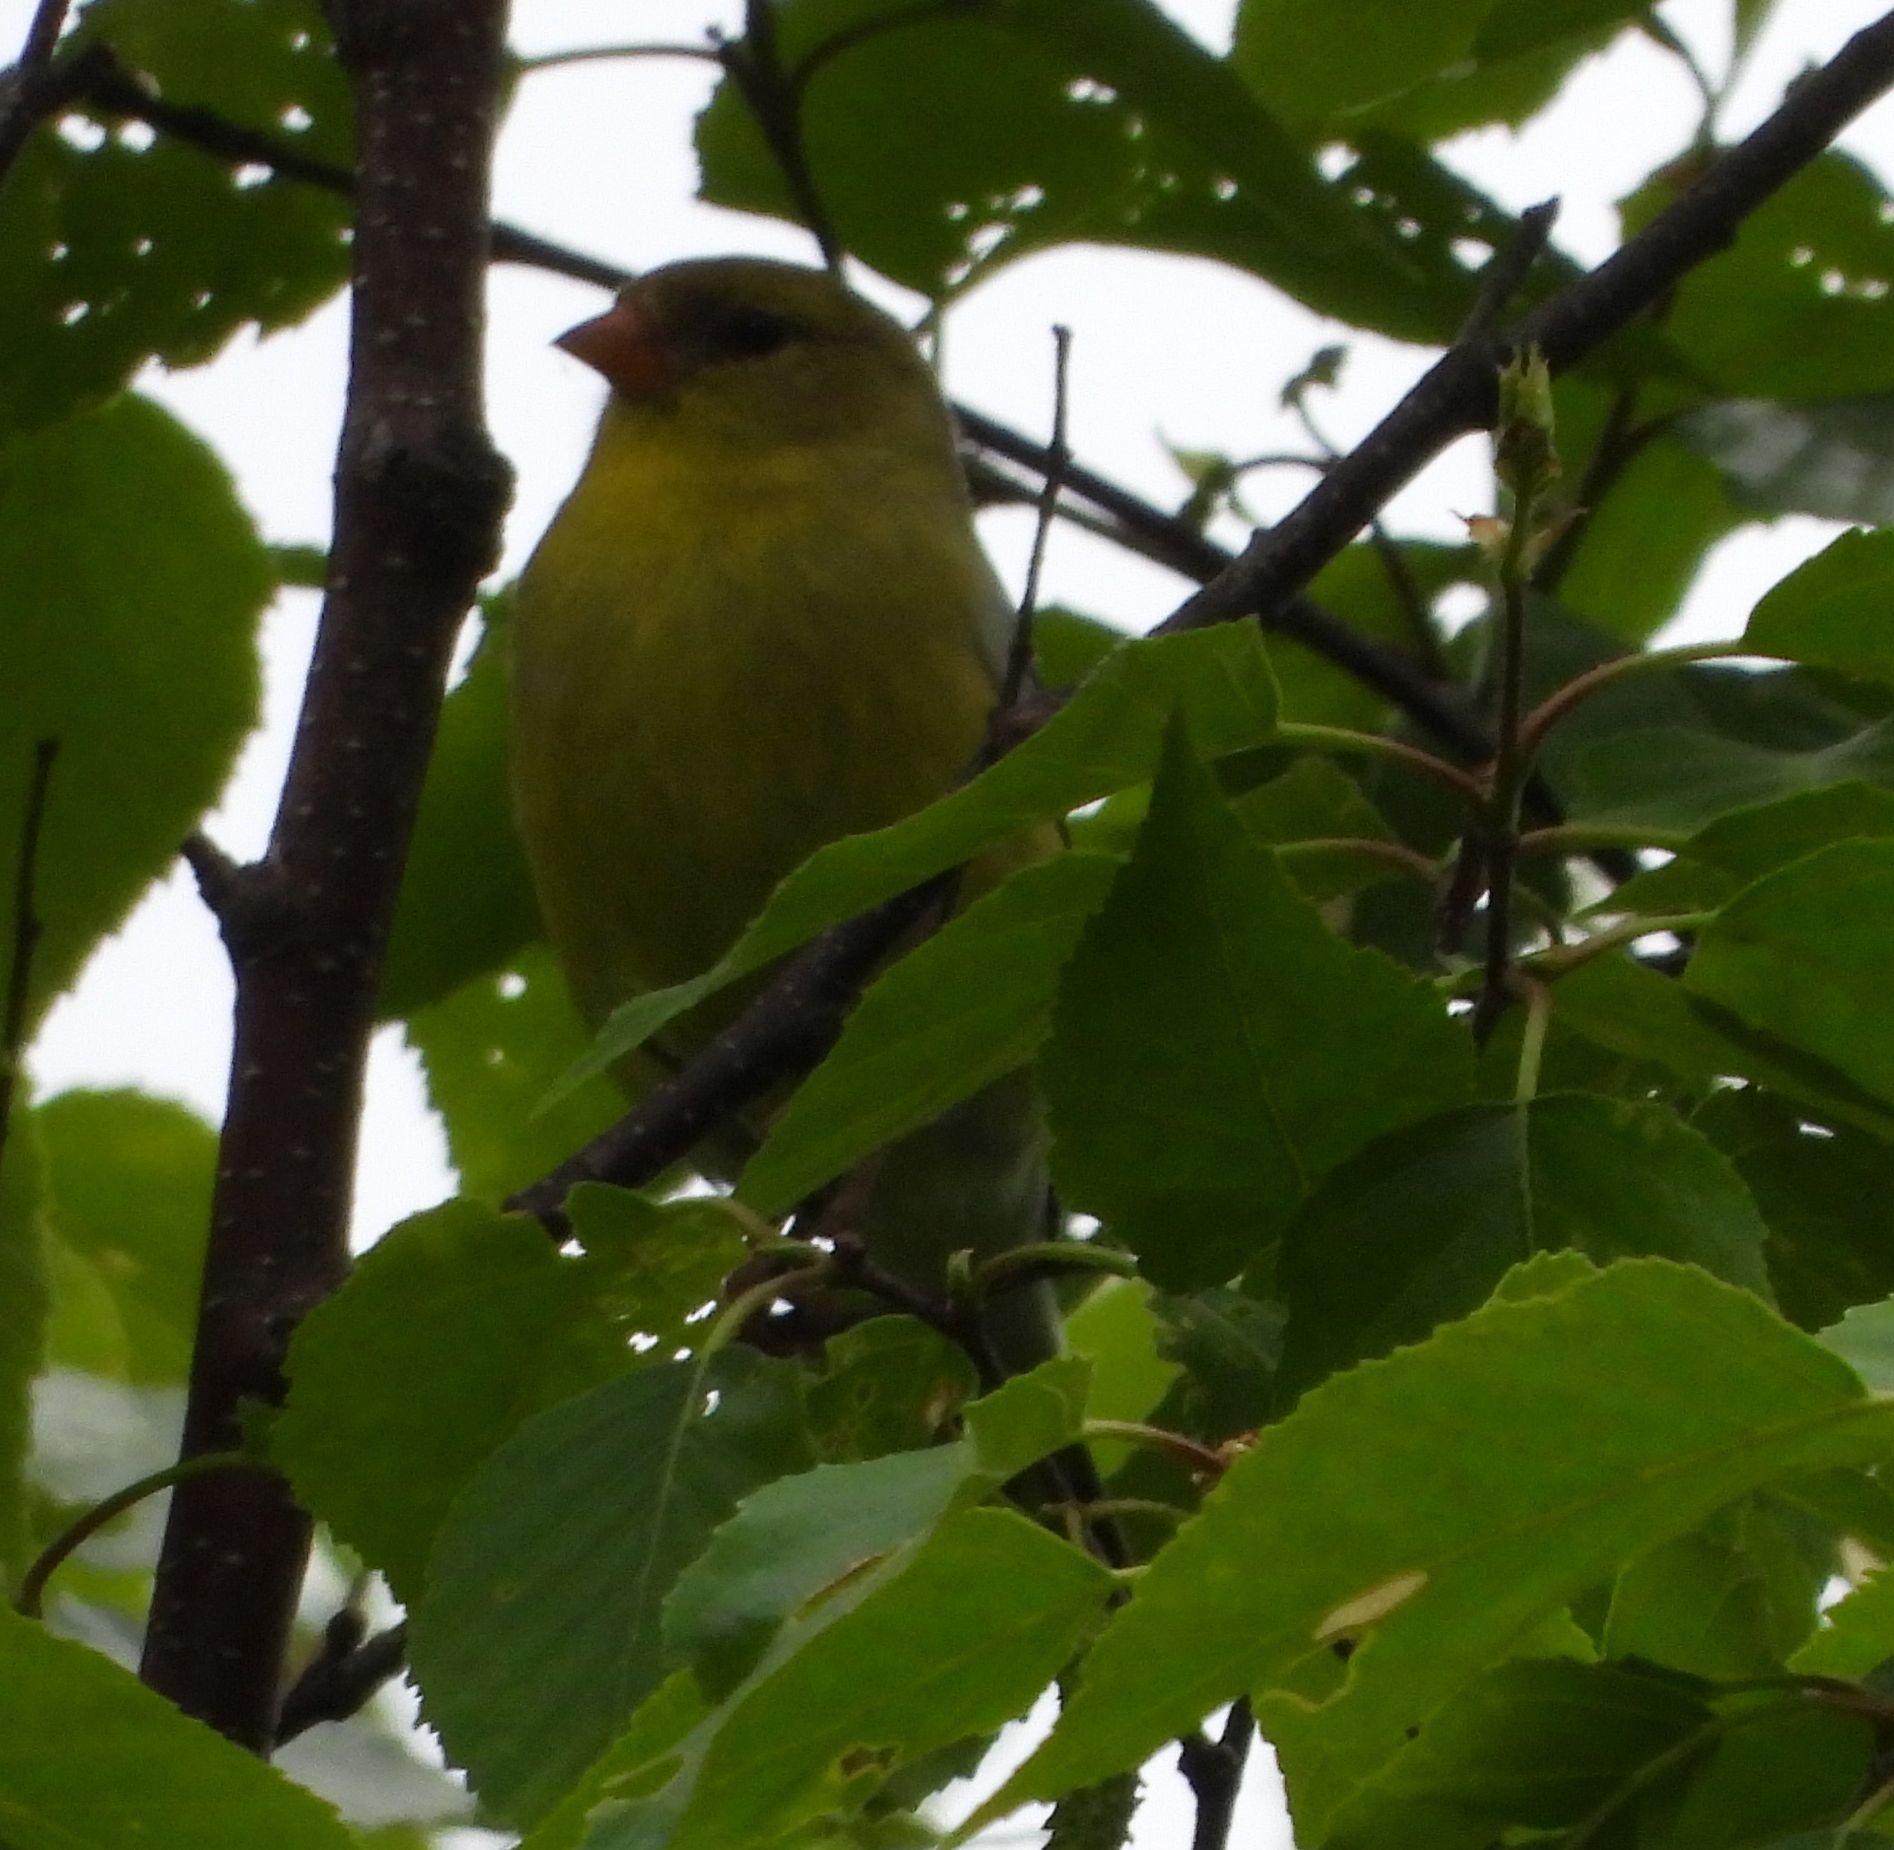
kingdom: Animalia
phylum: Chordata
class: Aves
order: Passeriformes
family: Fringillidae
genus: Spinus
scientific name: Spinus tristis
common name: American goldfinch
